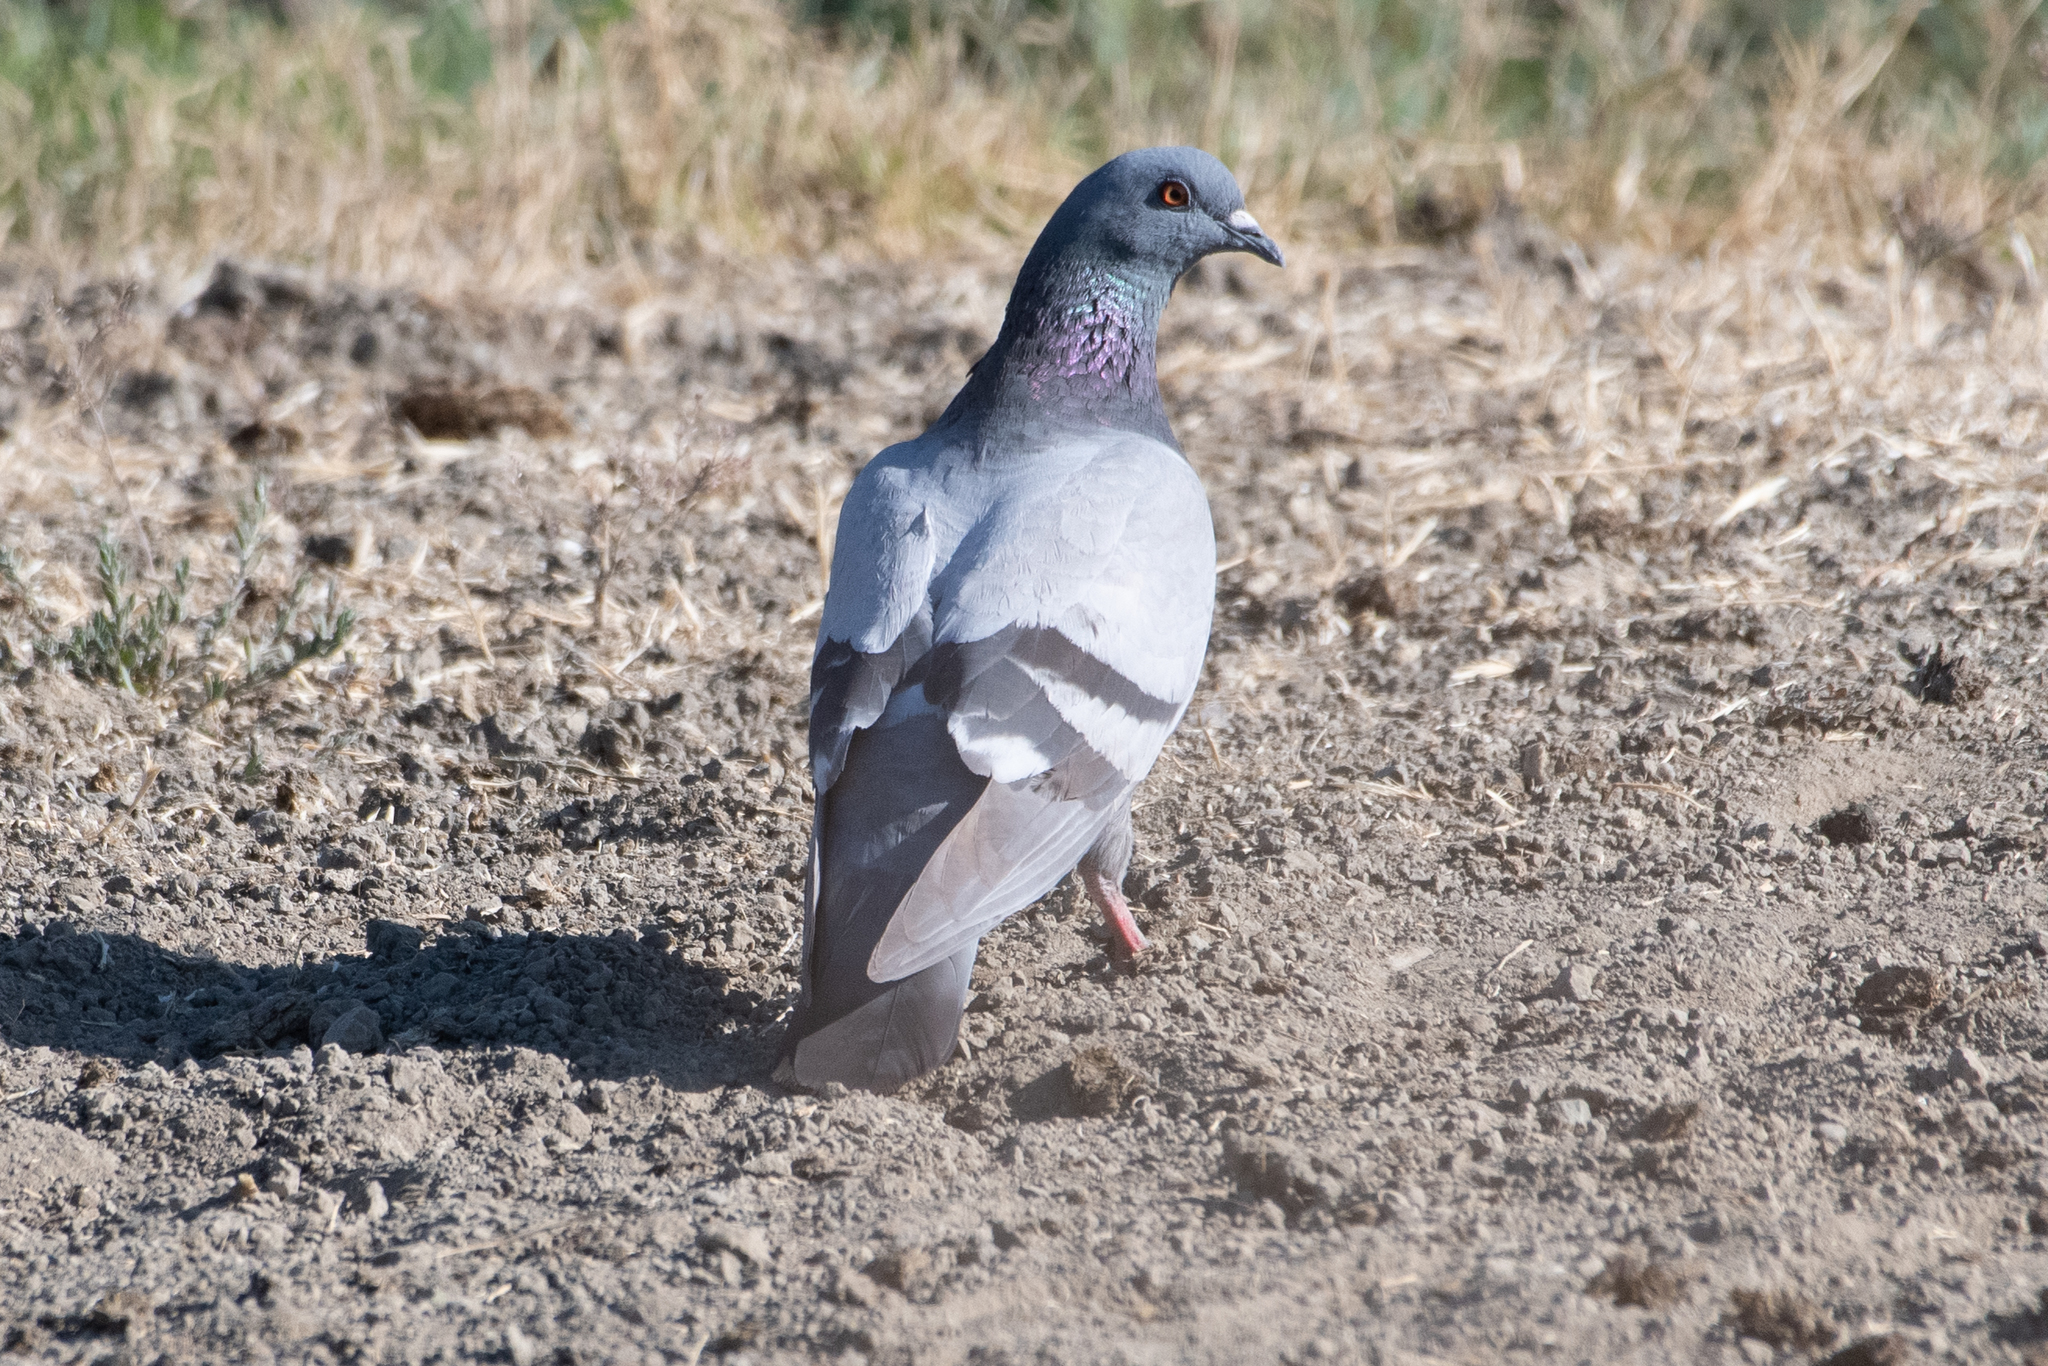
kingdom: Animalia
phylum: Chordata
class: Aves
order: Columbiformes
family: Columbidae
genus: Columba
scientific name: Columba livia
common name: Rock pigeon
